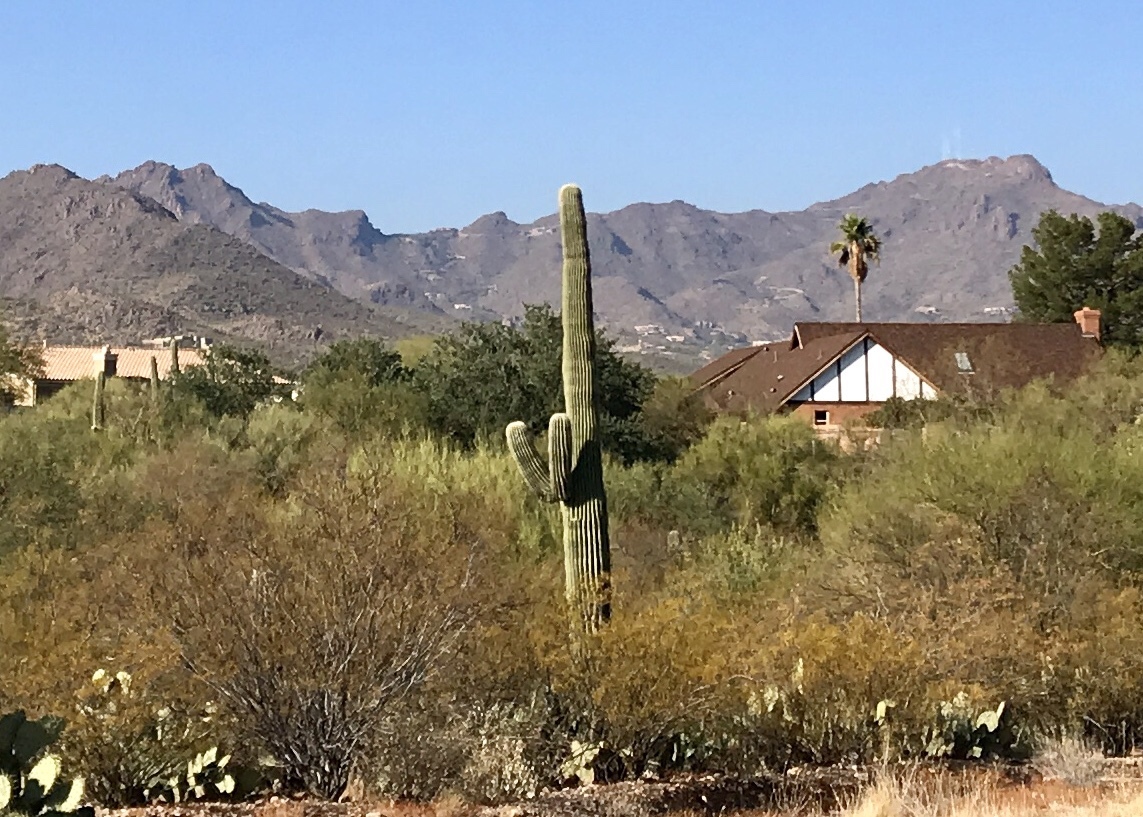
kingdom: Plantae
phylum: Tracheophyta
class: Magnoliopsida
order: Caryophyllales
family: Cactaceae
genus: Carnegiea
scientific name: Carnegiea gigantea
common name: Saguaro
